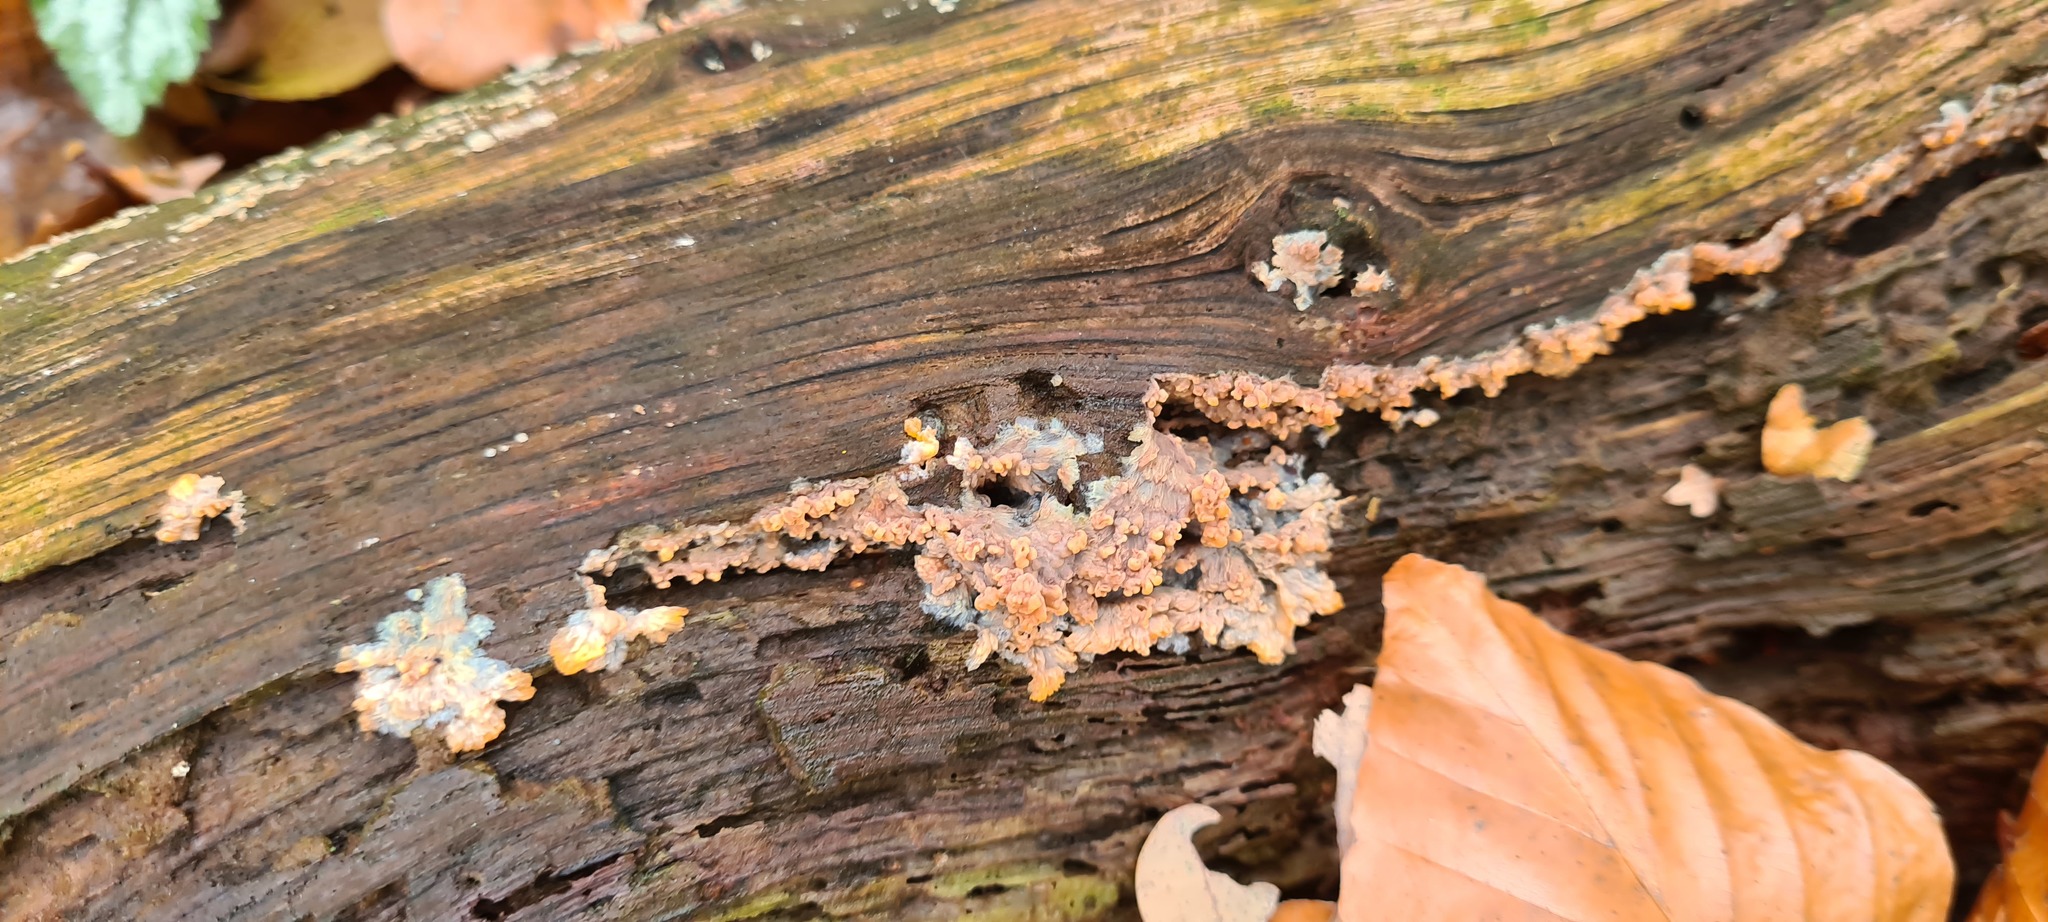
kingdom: Fungi
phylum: Basidiomycota
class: Agaricomycetes
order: Polyporales
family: Meruliaceae
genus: Phlebia
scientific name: Phlebia radiata
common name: Wrinkled crust
